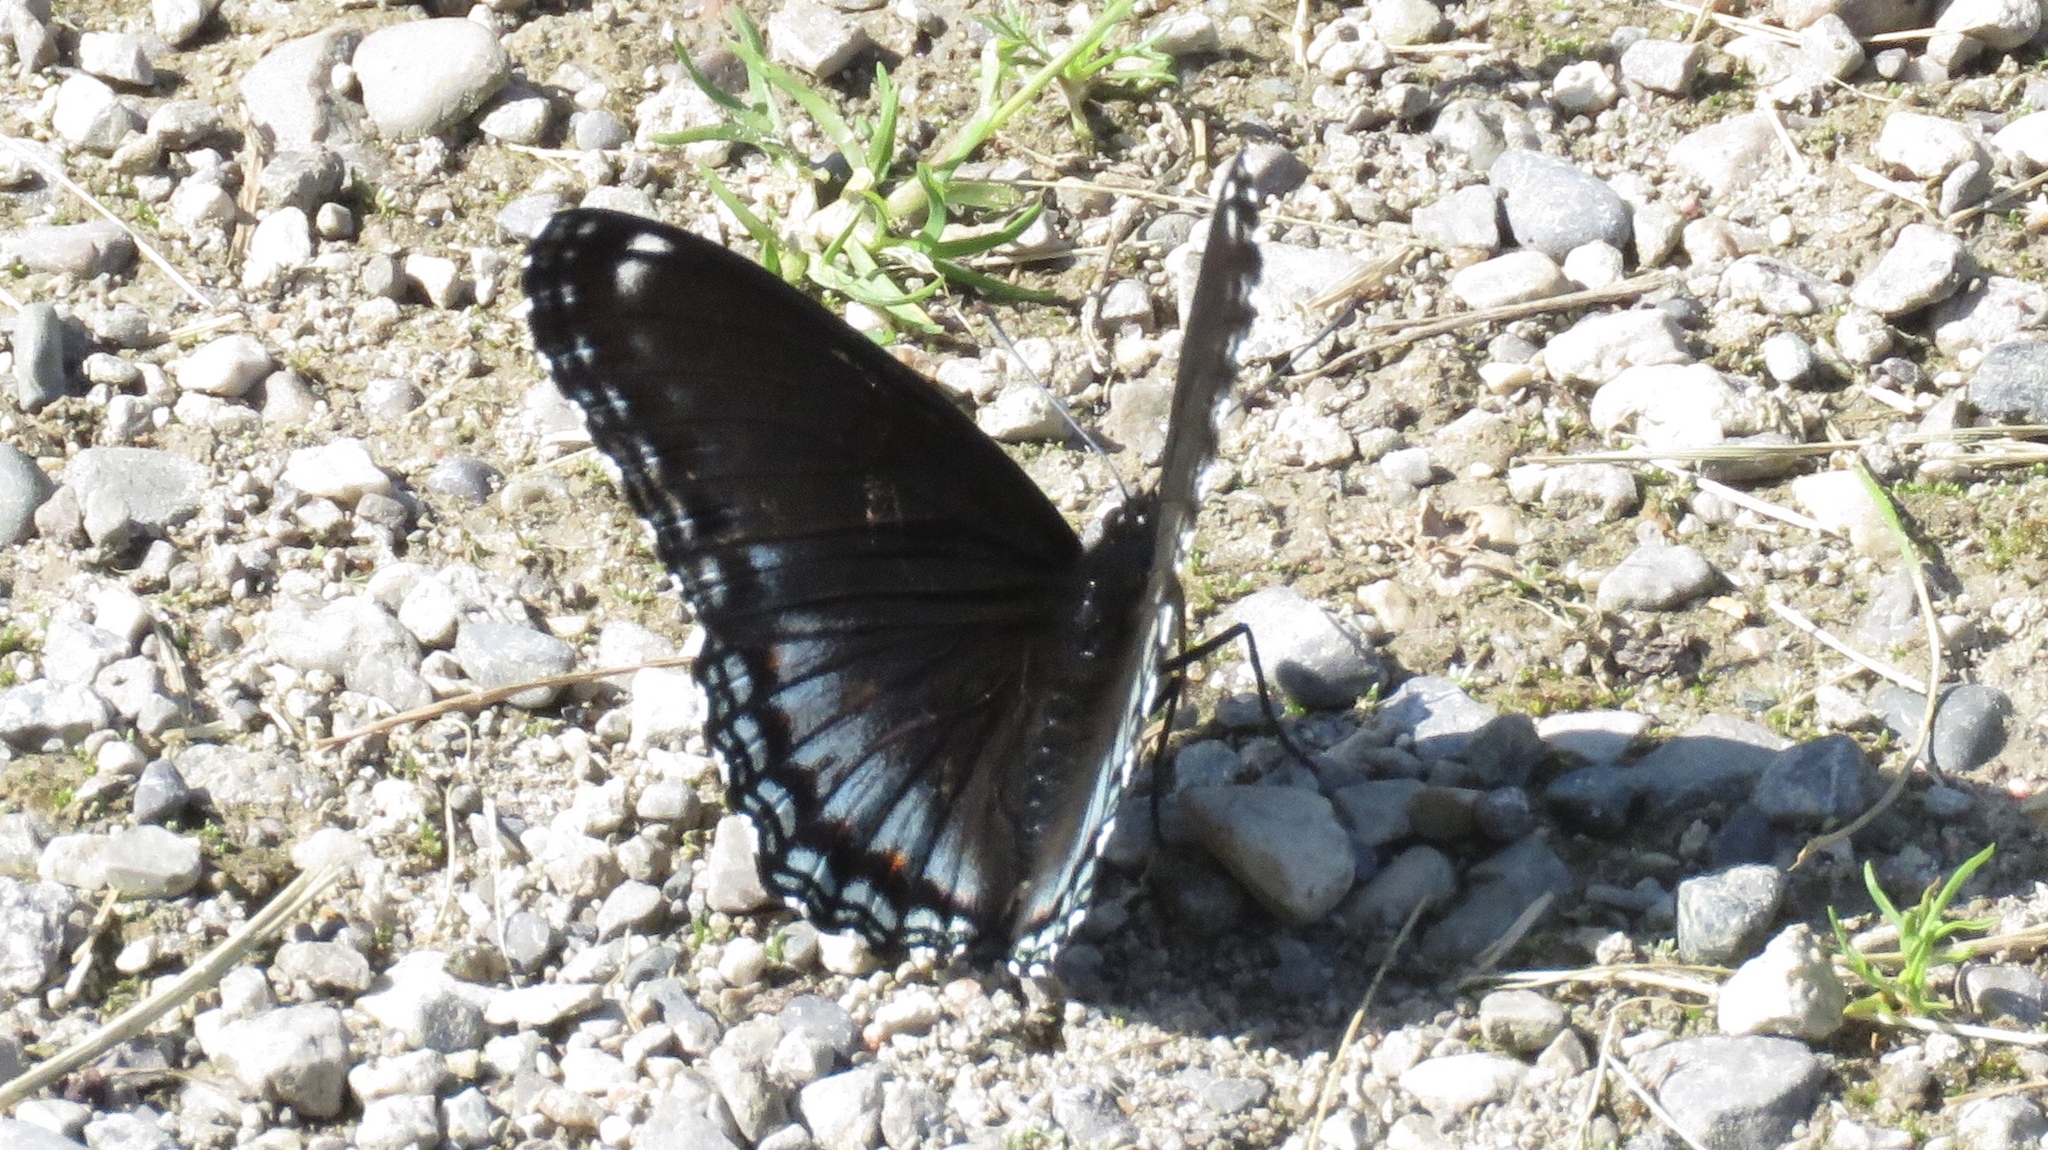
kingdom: Animalia
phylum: Arthropoda
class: Insecta
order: Lepidoptera
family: Nymphalidae
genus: Limenitis
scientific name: Limenitis astyanax
